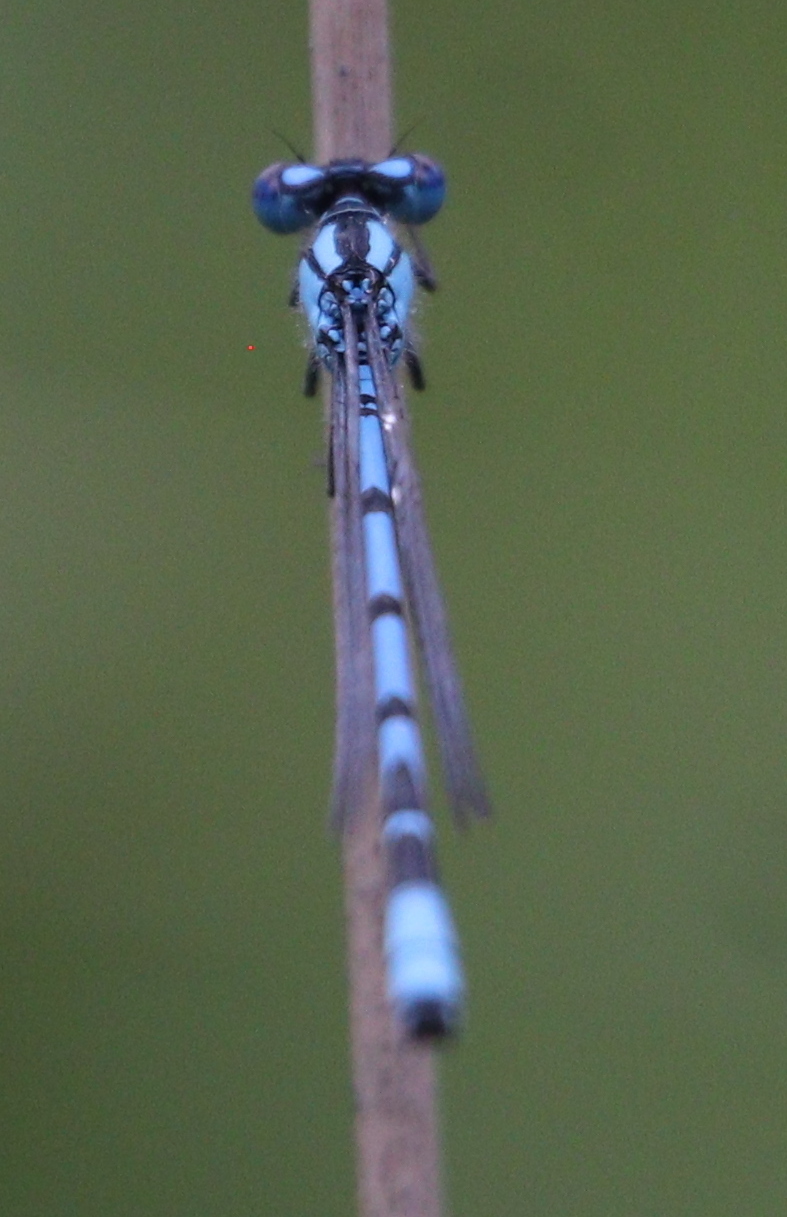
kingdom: Animalia
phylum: Arthropoda
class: Insecta
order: Odonata
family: Coenagrionidae
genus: Enallagma
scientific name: Enallagma cyathigerum
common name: Common blue damselfly
